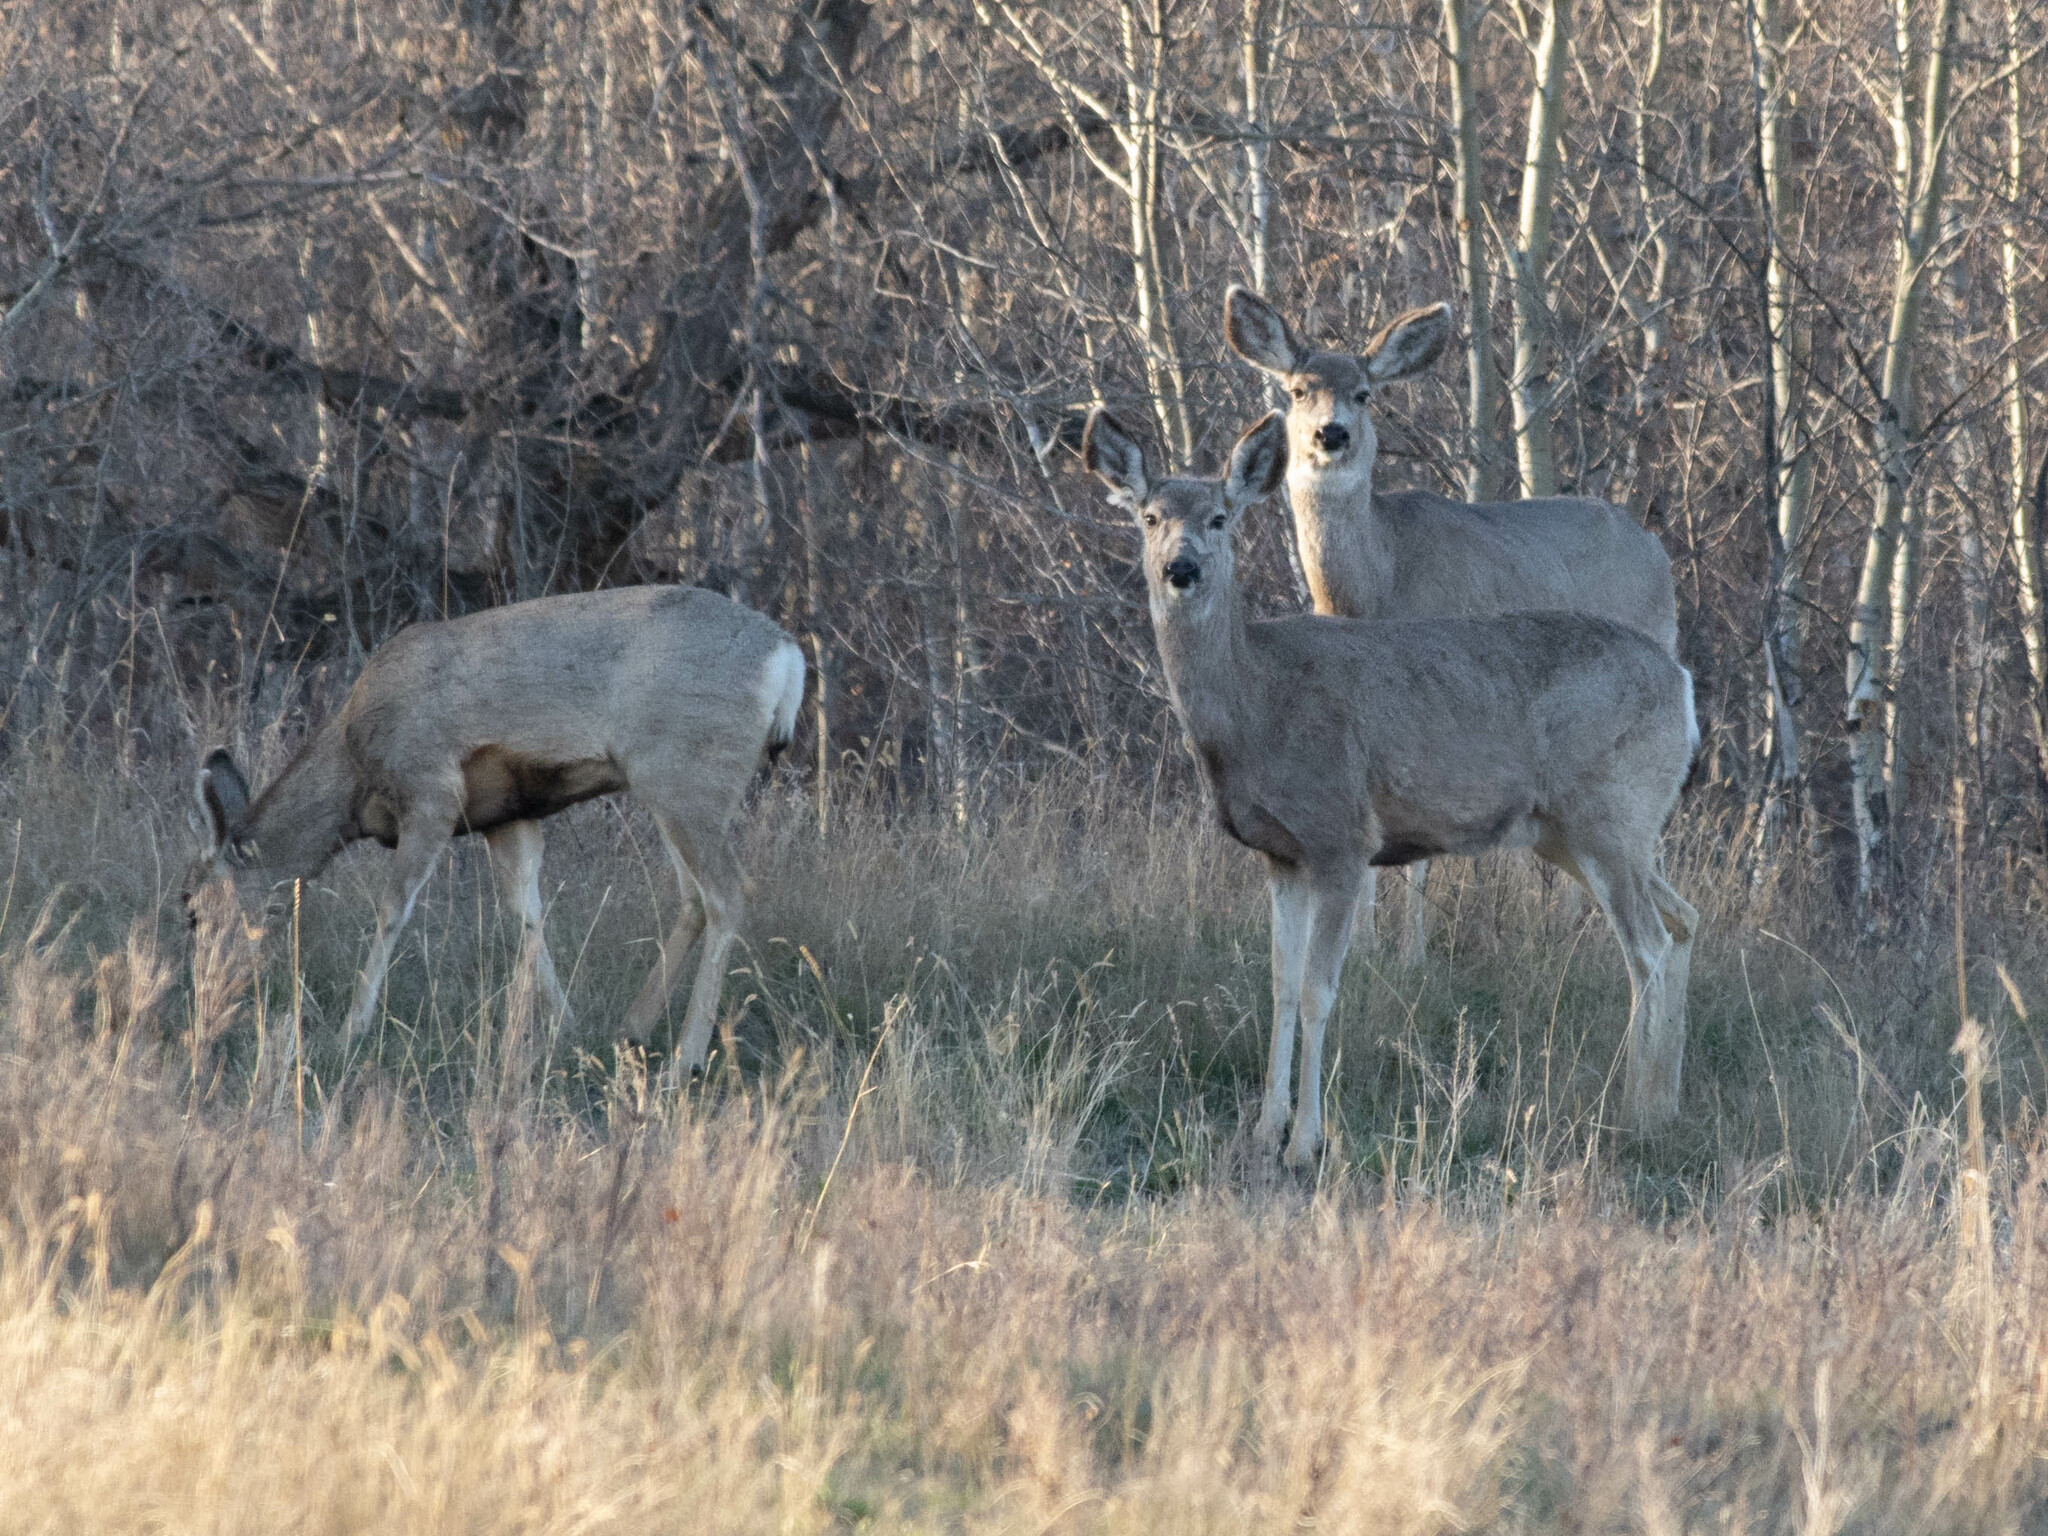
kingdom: Animalia
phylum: Chordata
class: Mammalia
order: Artiodactyla
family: Cervidae
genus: Odocoileus
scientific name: Odocoileus hemionus
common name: Mule deer
